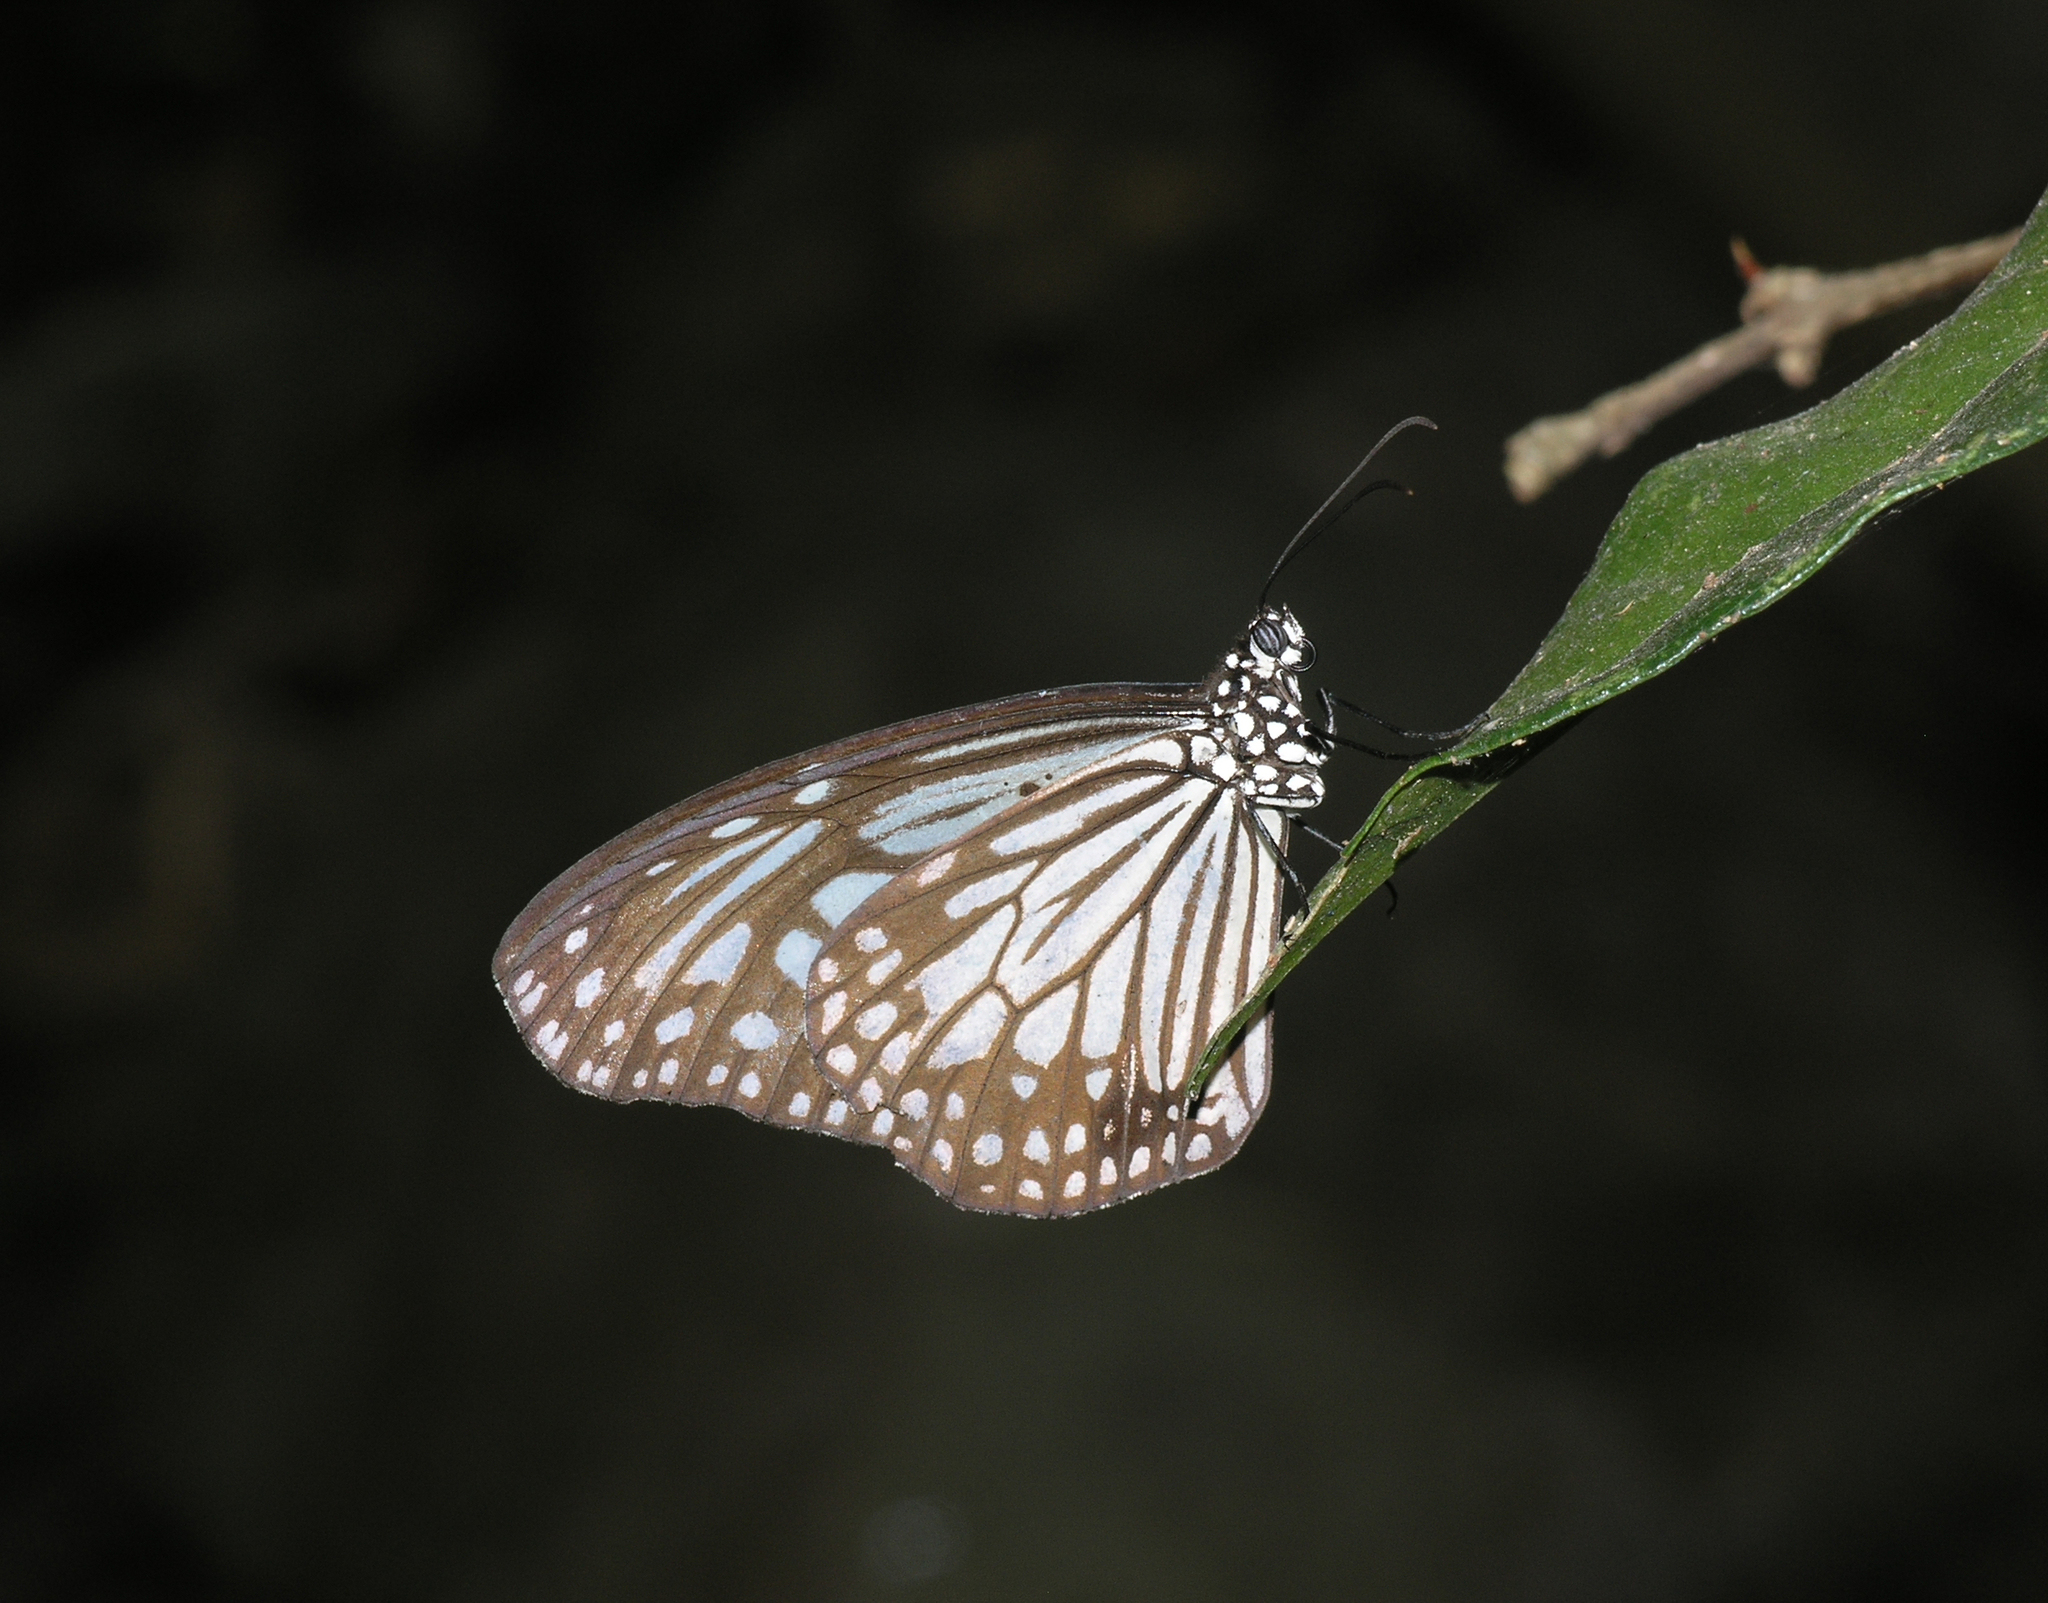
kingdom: Animalia
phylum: Arthropoda
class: Insecta
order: Lepidoptera
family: Nymphalidae
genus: Parantica
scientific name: Parantica aglea
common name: Glassy tiger
